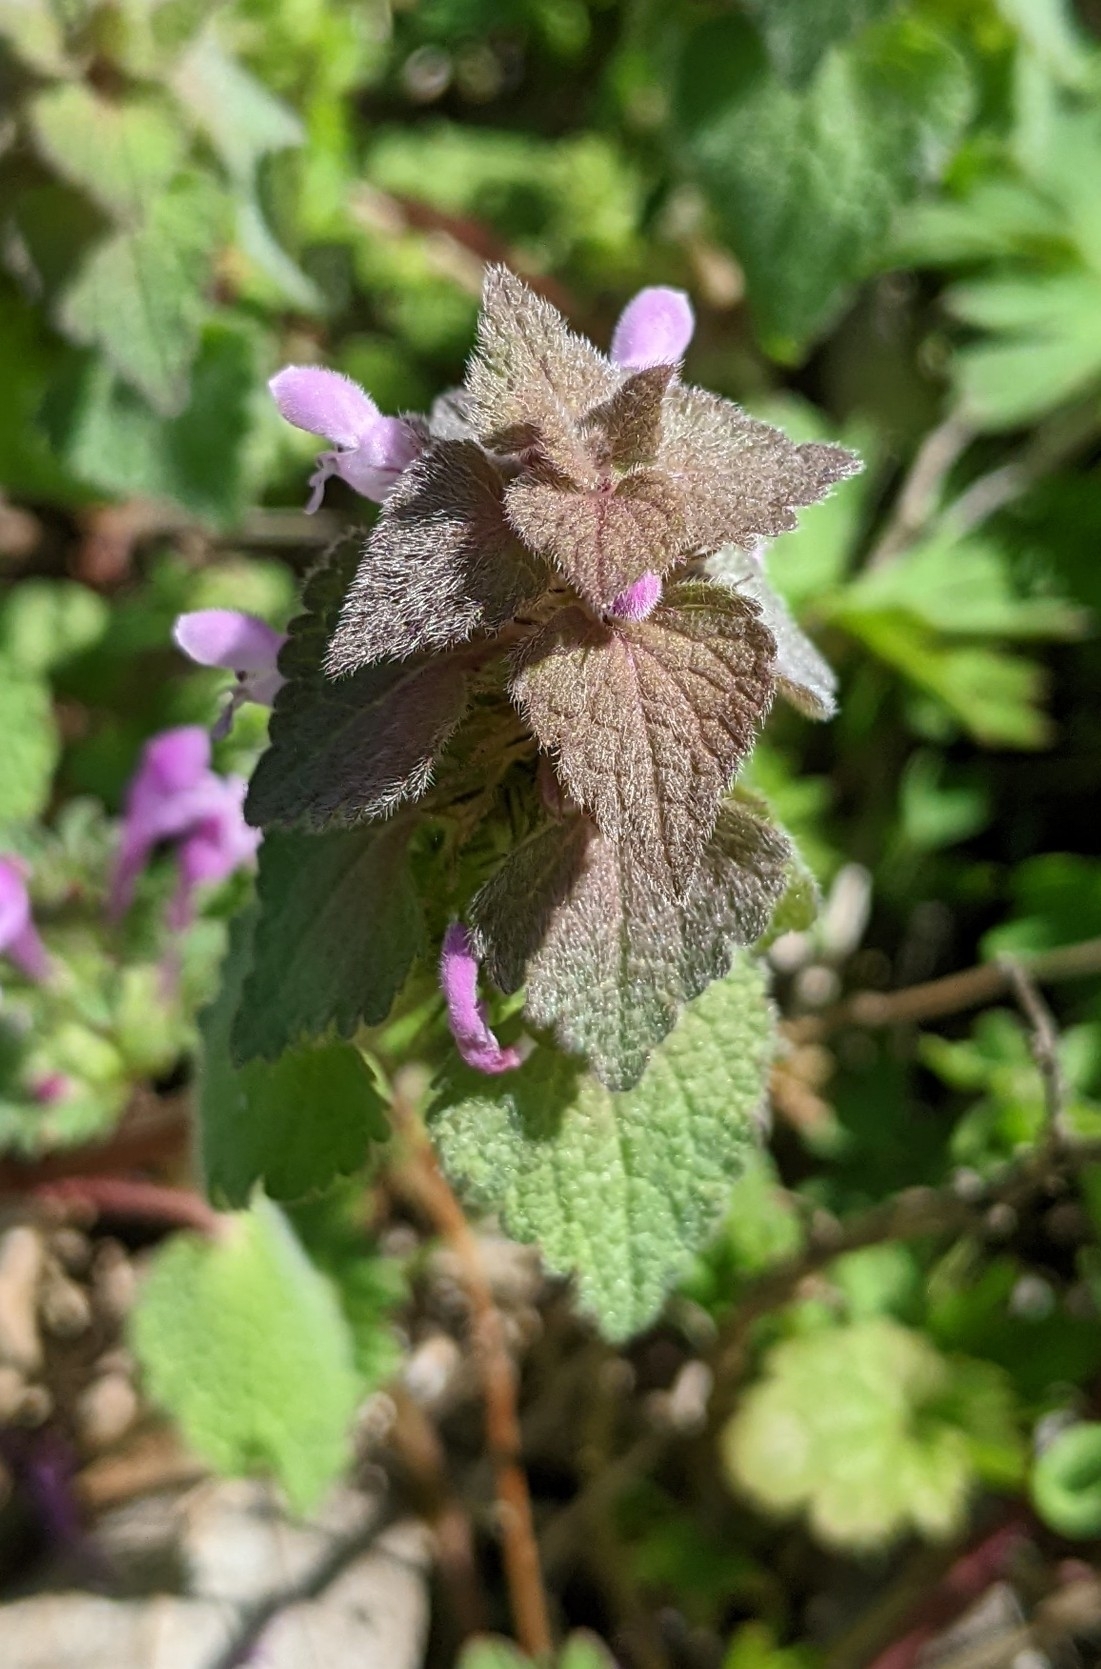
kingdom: Plantae
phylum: Tracheophyta
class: Magnoliopsida
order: Lamiales
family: Lamiaceae
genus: Lamium
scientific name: Lamium purpureum
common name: Red dead-nettle
